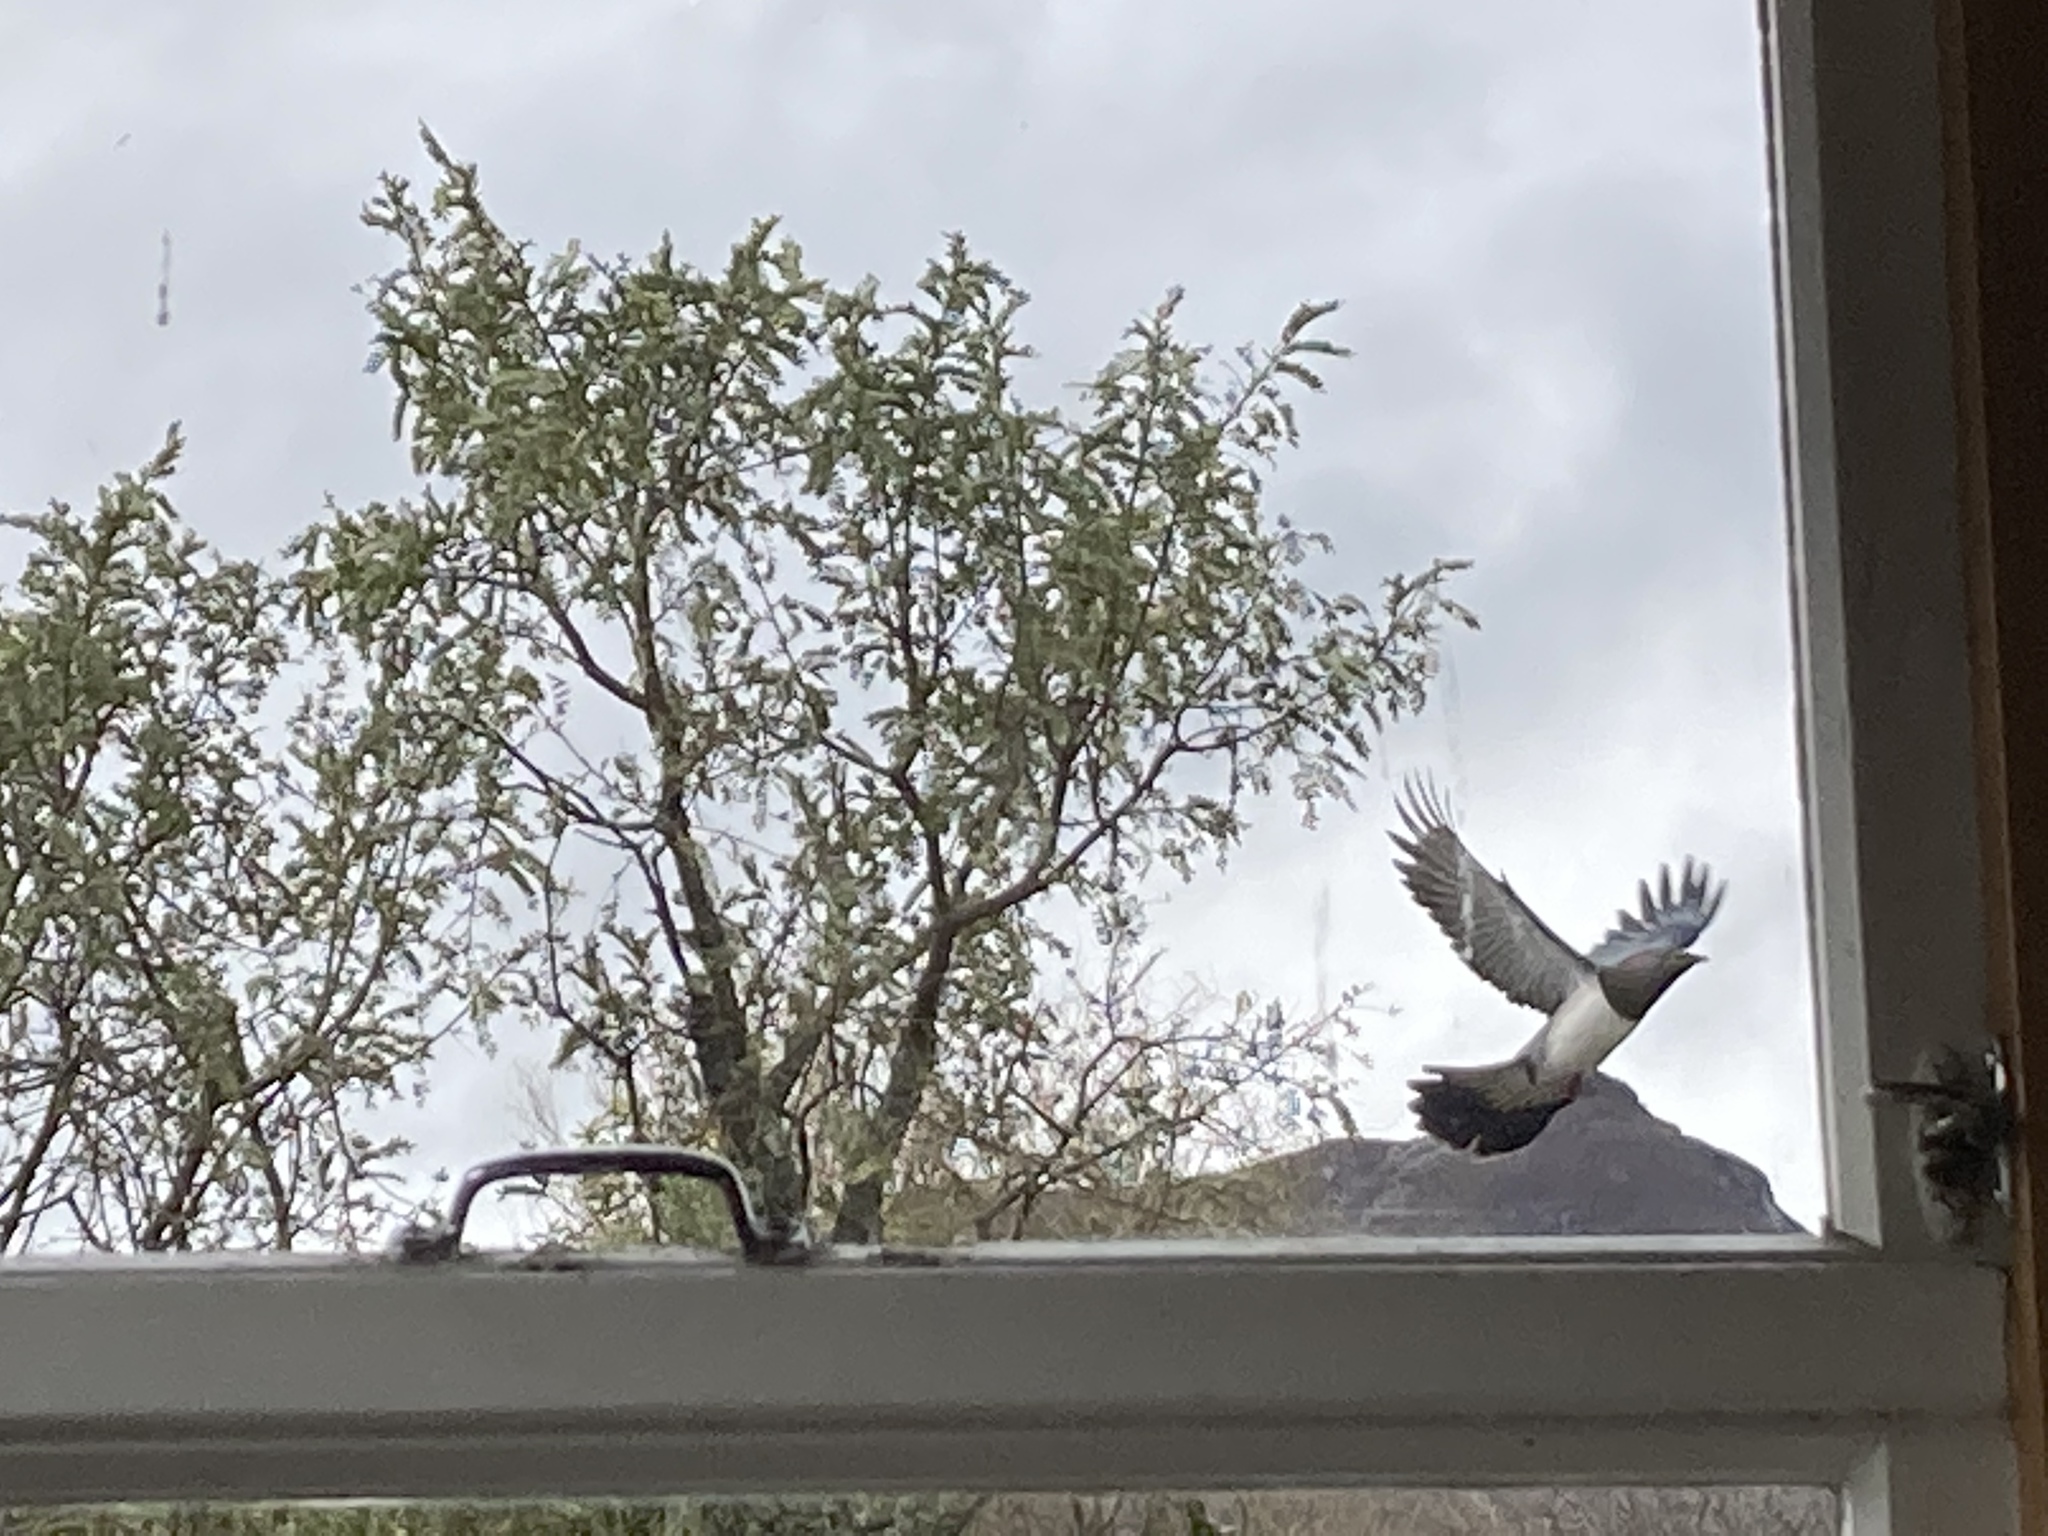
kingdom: Animalia
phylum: Chordata
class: Aves
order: Columbiformes
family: Columbidae
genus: Hemiphaga
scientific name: Hemiphaga novaeseelandiae
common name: New zealand pigeon
